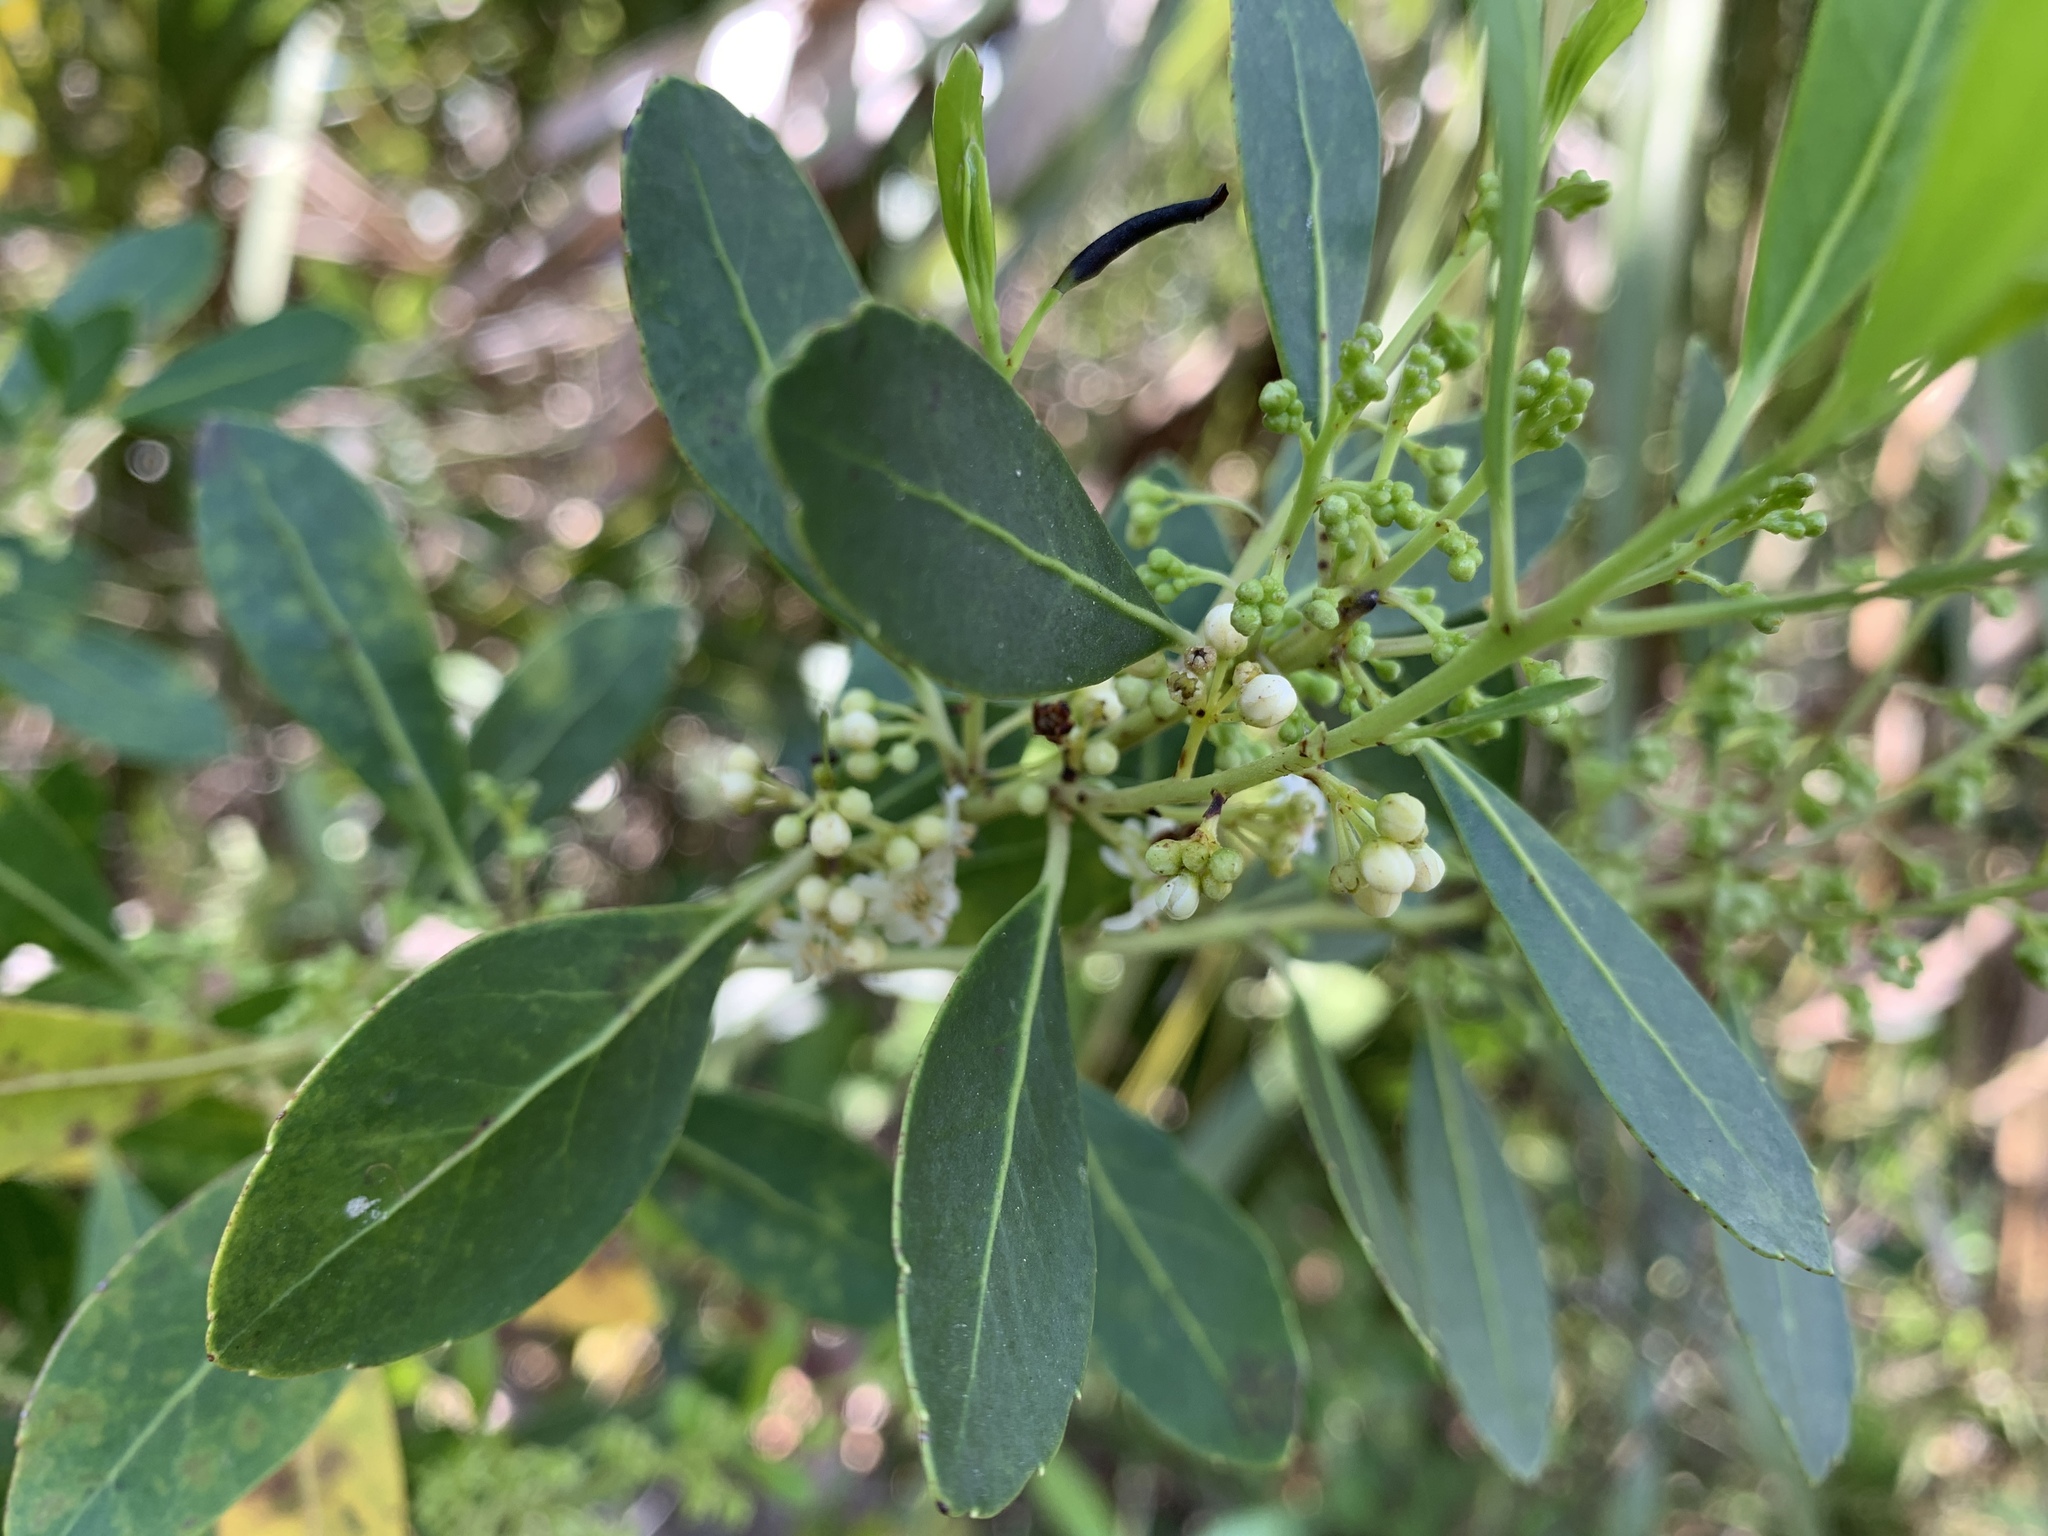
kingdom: Plantae
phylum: Tracheophyta
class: Magnoliopsida
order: Aquifoliales
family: Aquifoliaceae
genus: Ilex
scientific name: Ilex glabra
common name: Bitter gallberry
